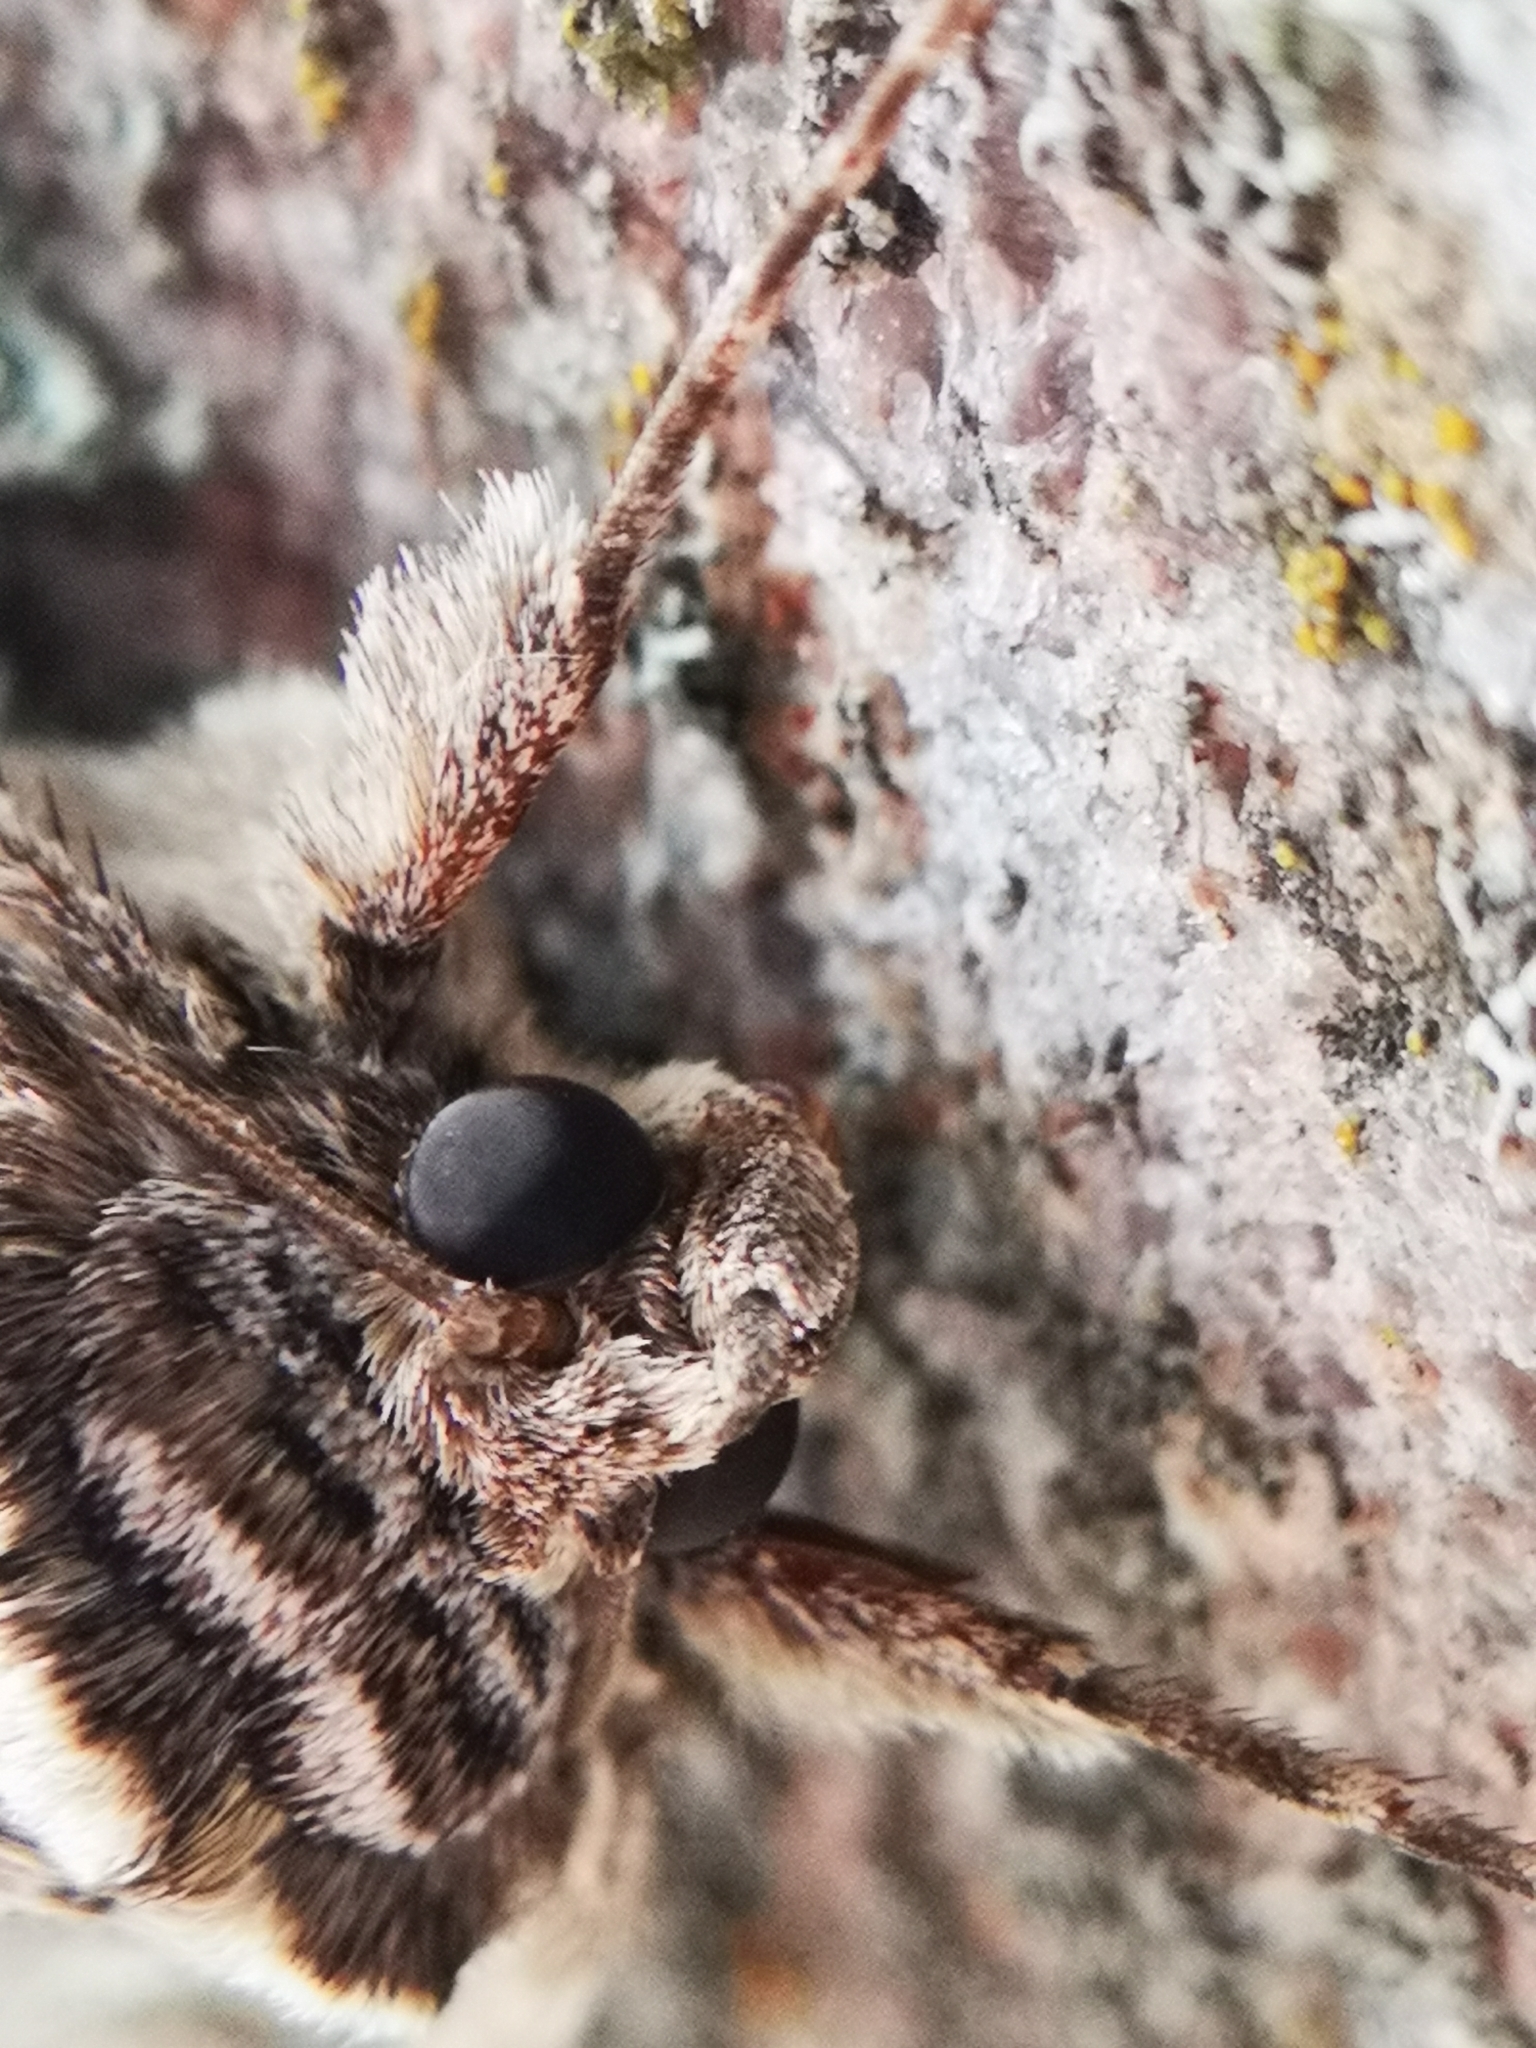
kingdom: Animalia
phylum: Arthropoda
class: Insecta
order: Lepidoptera
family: Erebidae
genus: Catocala
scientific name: Catocala amatrix
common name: Sweetheart underwing
